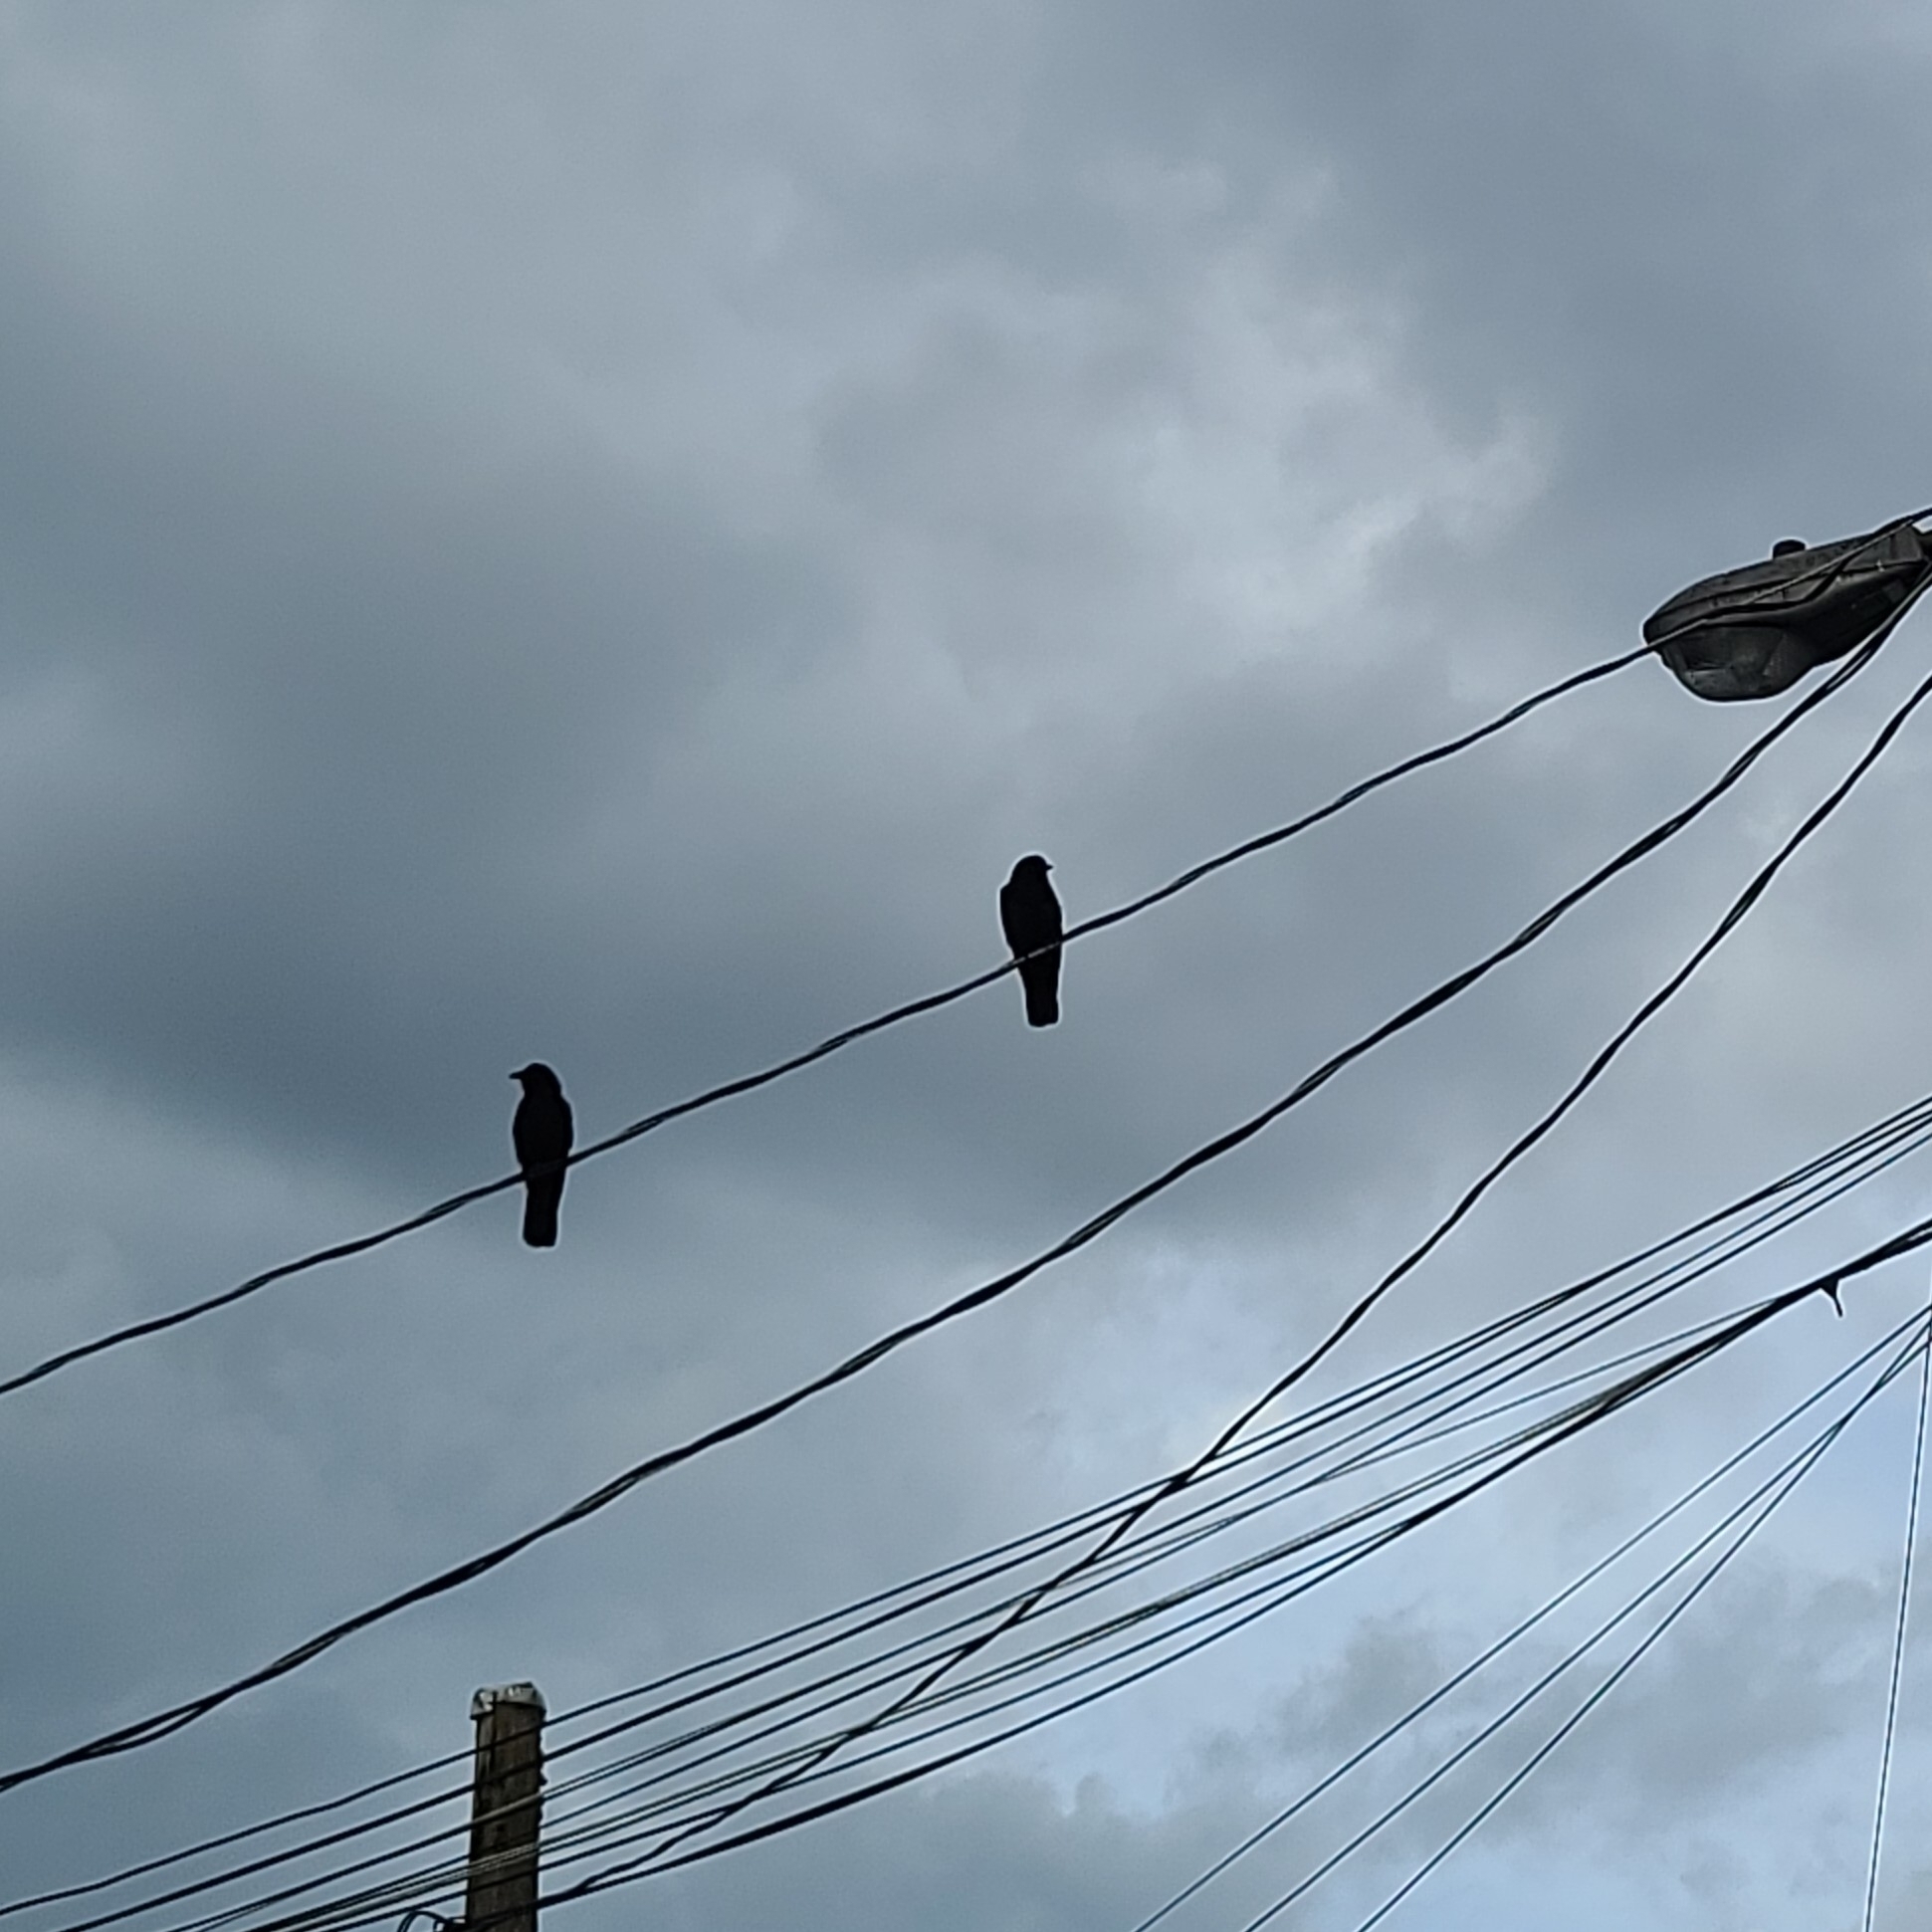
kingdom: Animalia
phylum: Chordata
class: Aves
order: Passeriformes
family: Corvidae
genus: Corvus
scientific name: Corvus brachyrhynchos
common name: American crow
